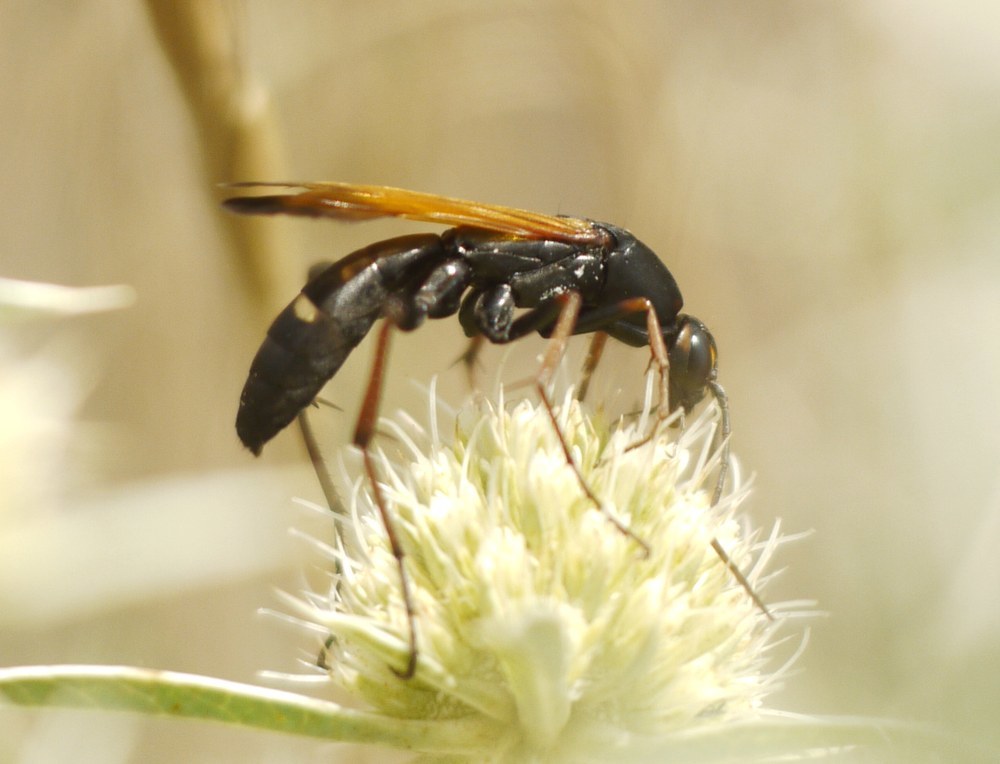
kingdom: Animalia
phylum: Arthropoda
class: Insecta
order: Hymenoptera
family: Pompilidae
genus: Cryptocheilus
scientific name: Cryptocheilus octomaculatus
